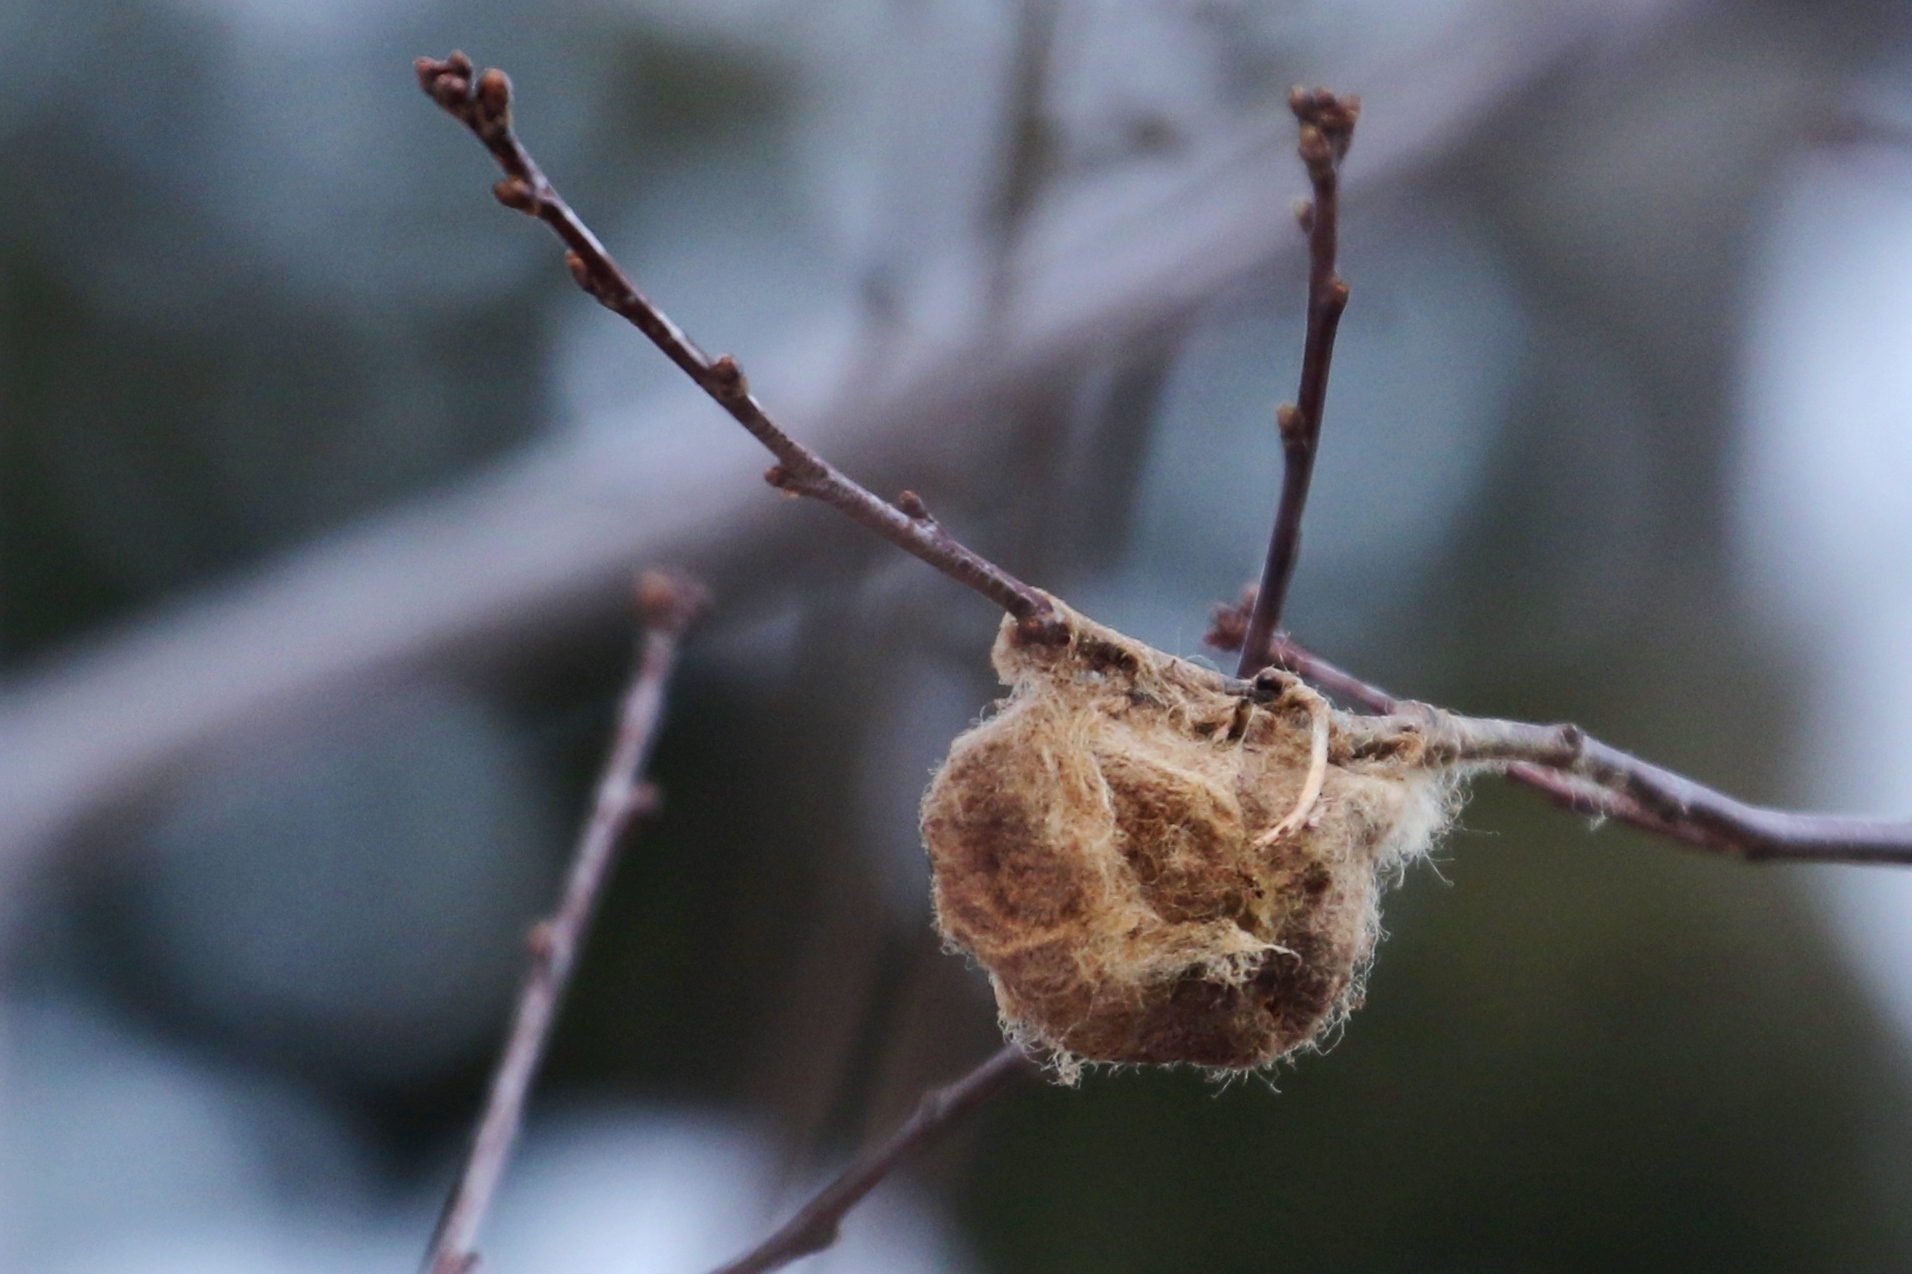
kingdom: Animalia
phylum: Arthropoda
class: Insecta
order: Lepidoptera
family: Saturniidae
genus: Hyalophora
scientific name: Hyalophora cecropia
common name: Cecropia silkmoth
